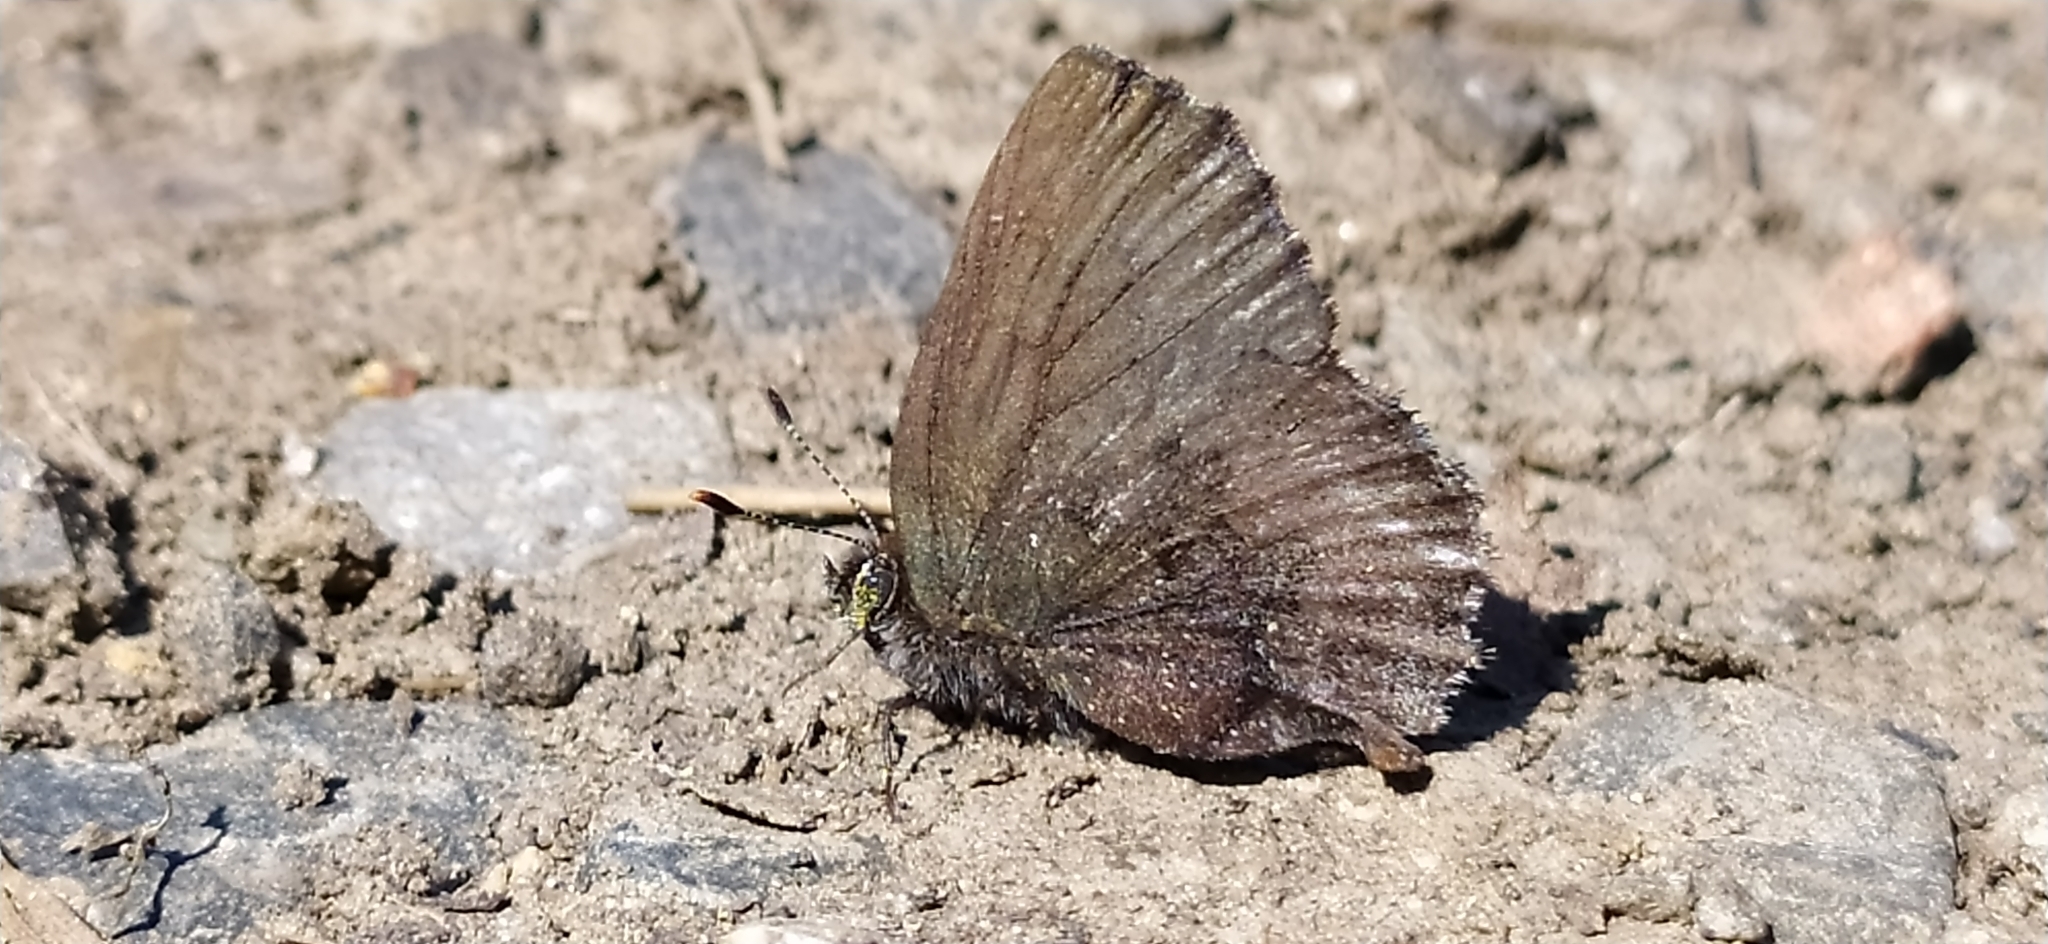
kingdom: Animalia
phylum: Arthropoda
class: Insecta
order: Lepidoptera
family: Lycaenidae
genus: Ginzia
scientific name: Ginzia Ahlbergia frivaldszkyi
